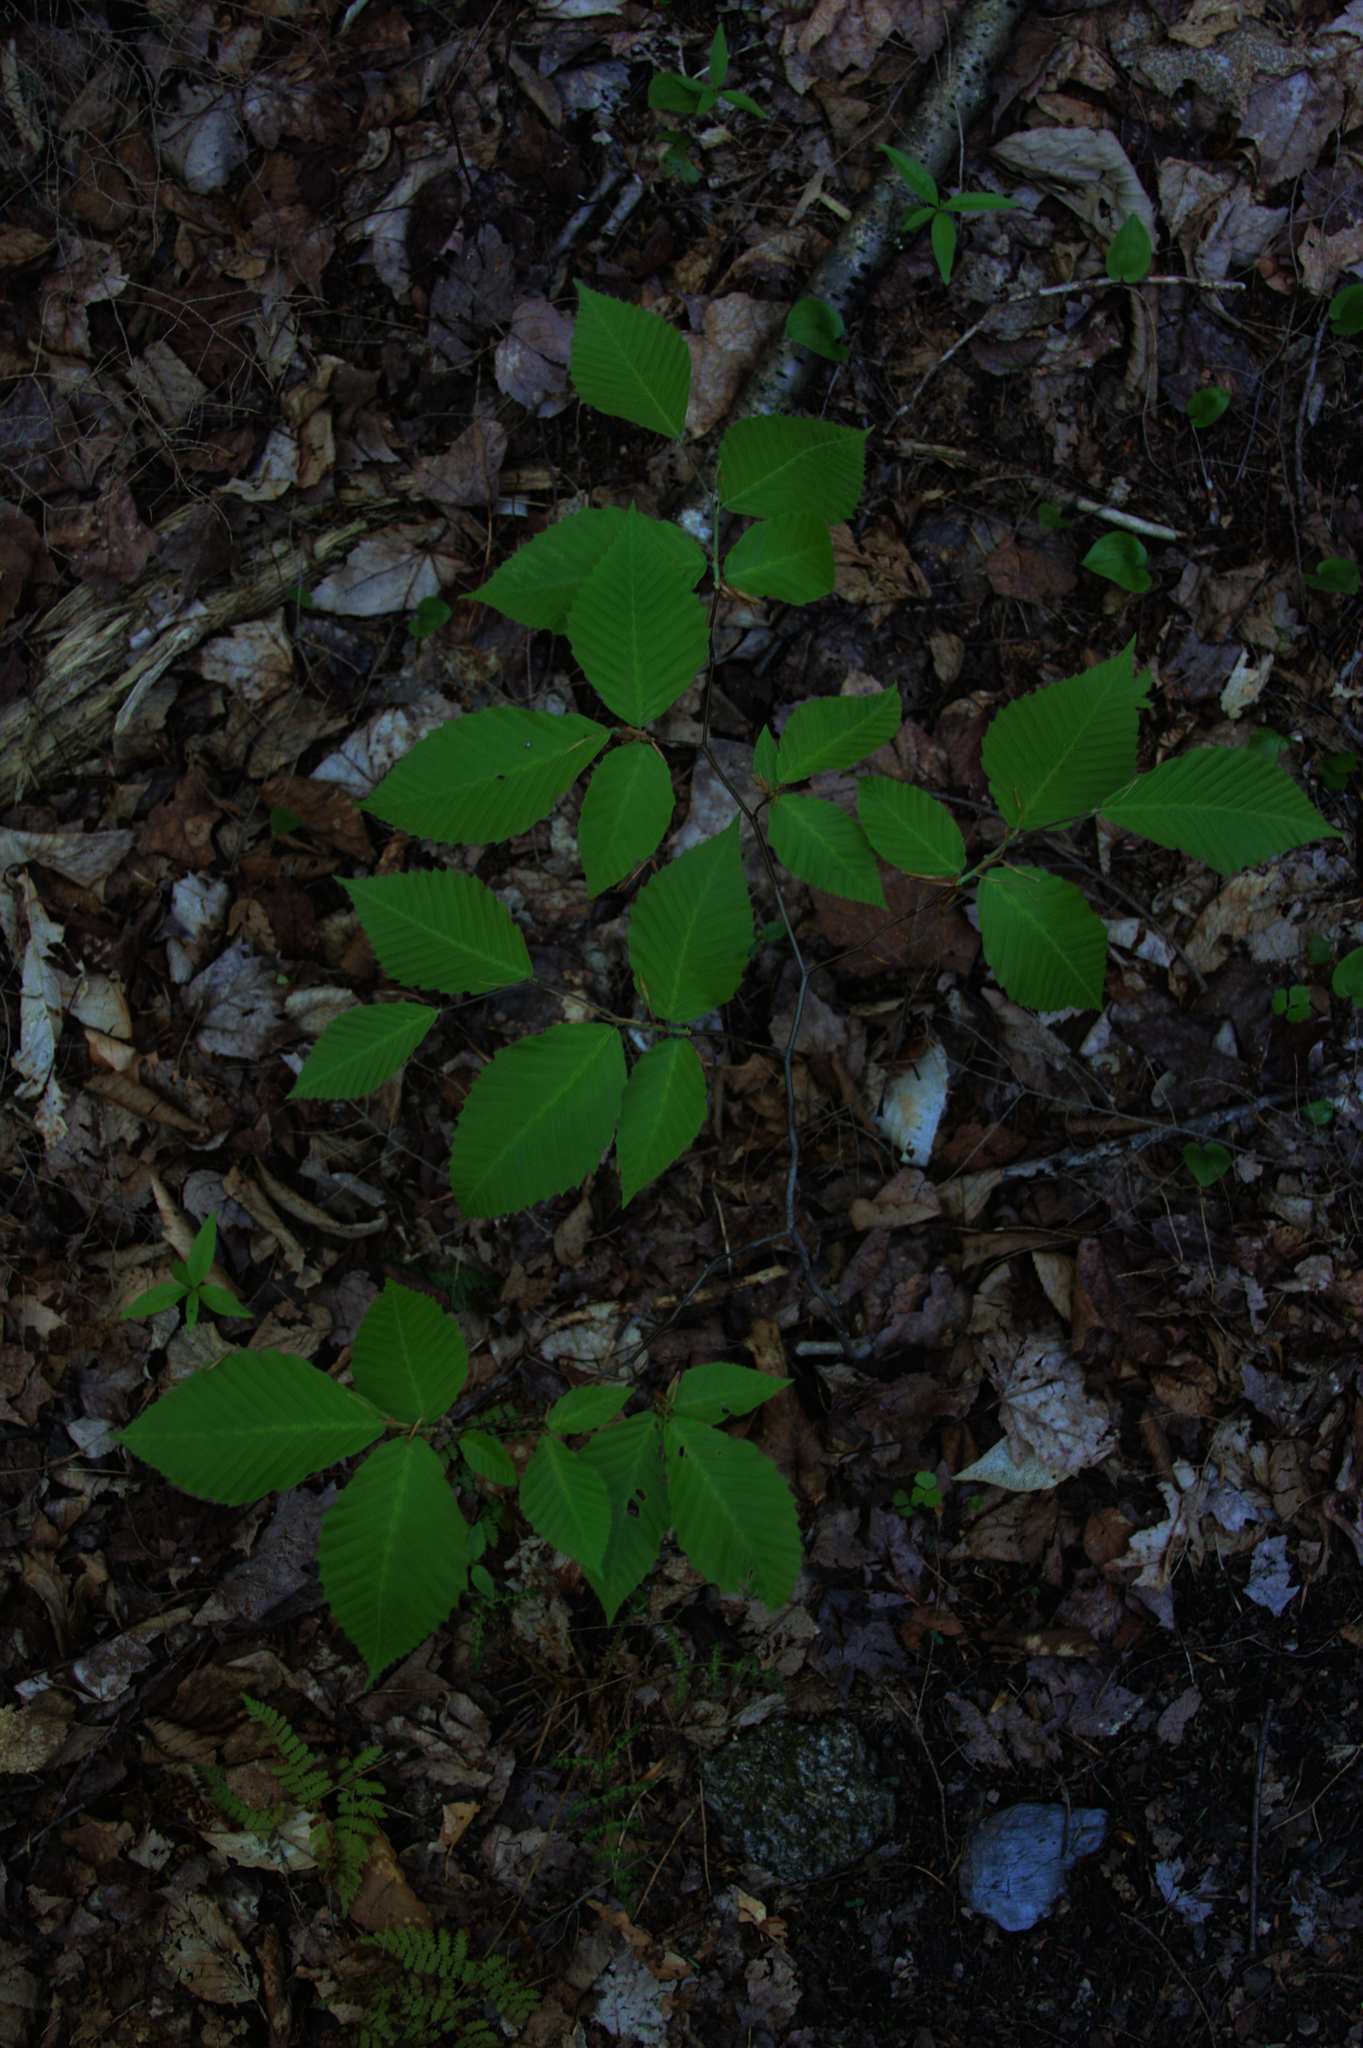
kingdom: Plantae
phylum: Tracheophyta
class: Magnoliopsida
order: Fagales
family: Fagaceae
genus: Fagus
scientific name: Fagus grandifolia
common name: American beech
